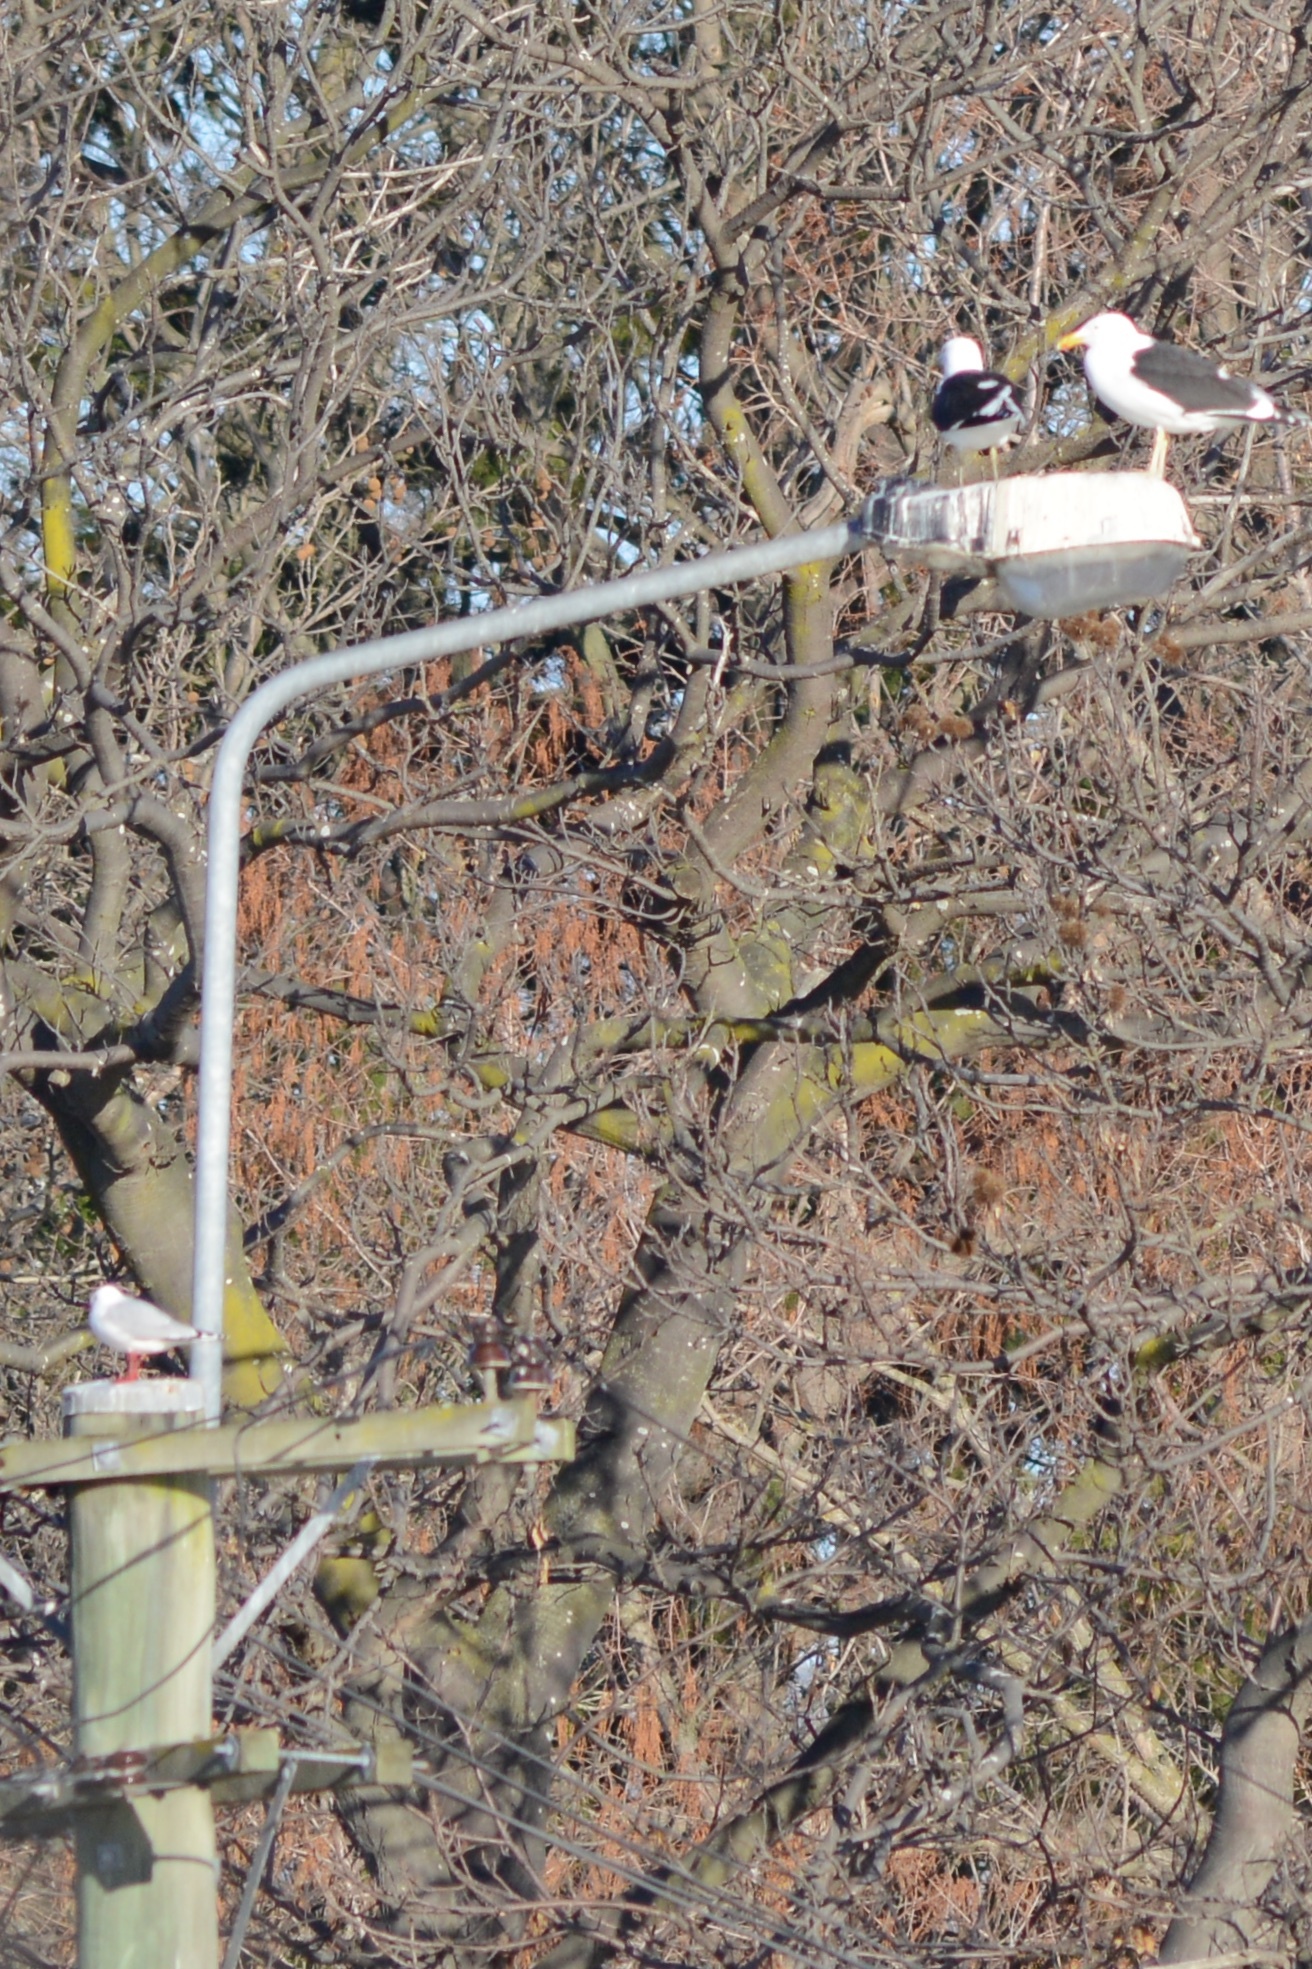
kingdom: Animalia
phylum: Chordata
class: Aves
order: Charadriiformes
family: Laridae
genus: Larus
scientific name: Larus dominicanus
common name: Kelp gull
